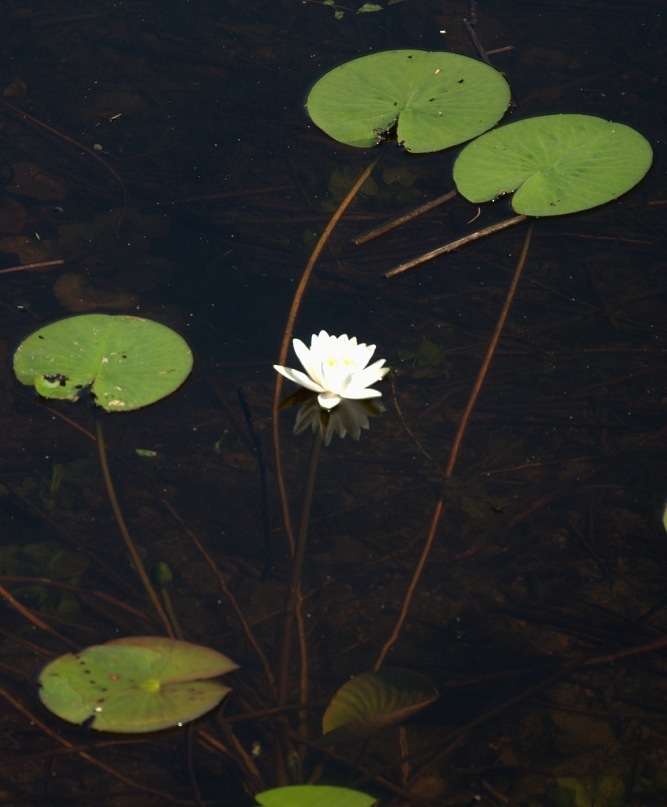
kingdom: Plantae
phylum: Tracheophyta
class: Magnoliopsida
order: Nymphaeales
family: Nymphaeaceae
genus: Nymphaea
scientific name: Nymphaea candida
